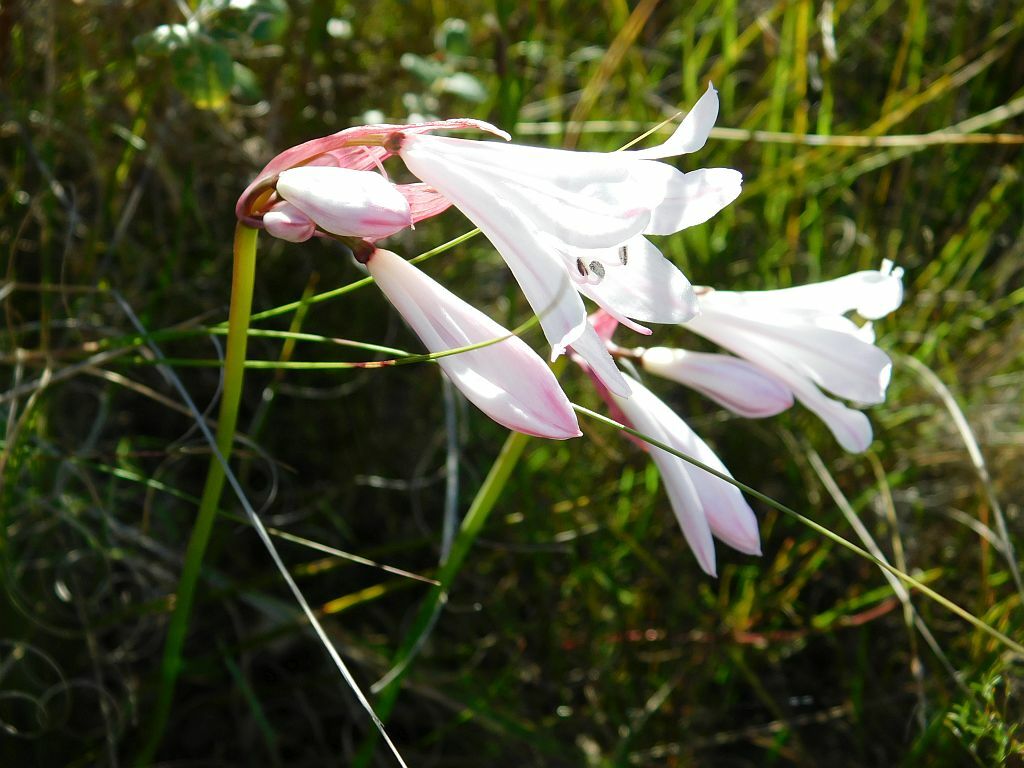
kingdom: Plantae
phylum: Tracheophyta
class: Liliopsida
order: Asparagales
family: Amaryllidaceae
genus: Nerine
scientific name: Nerine pudica
